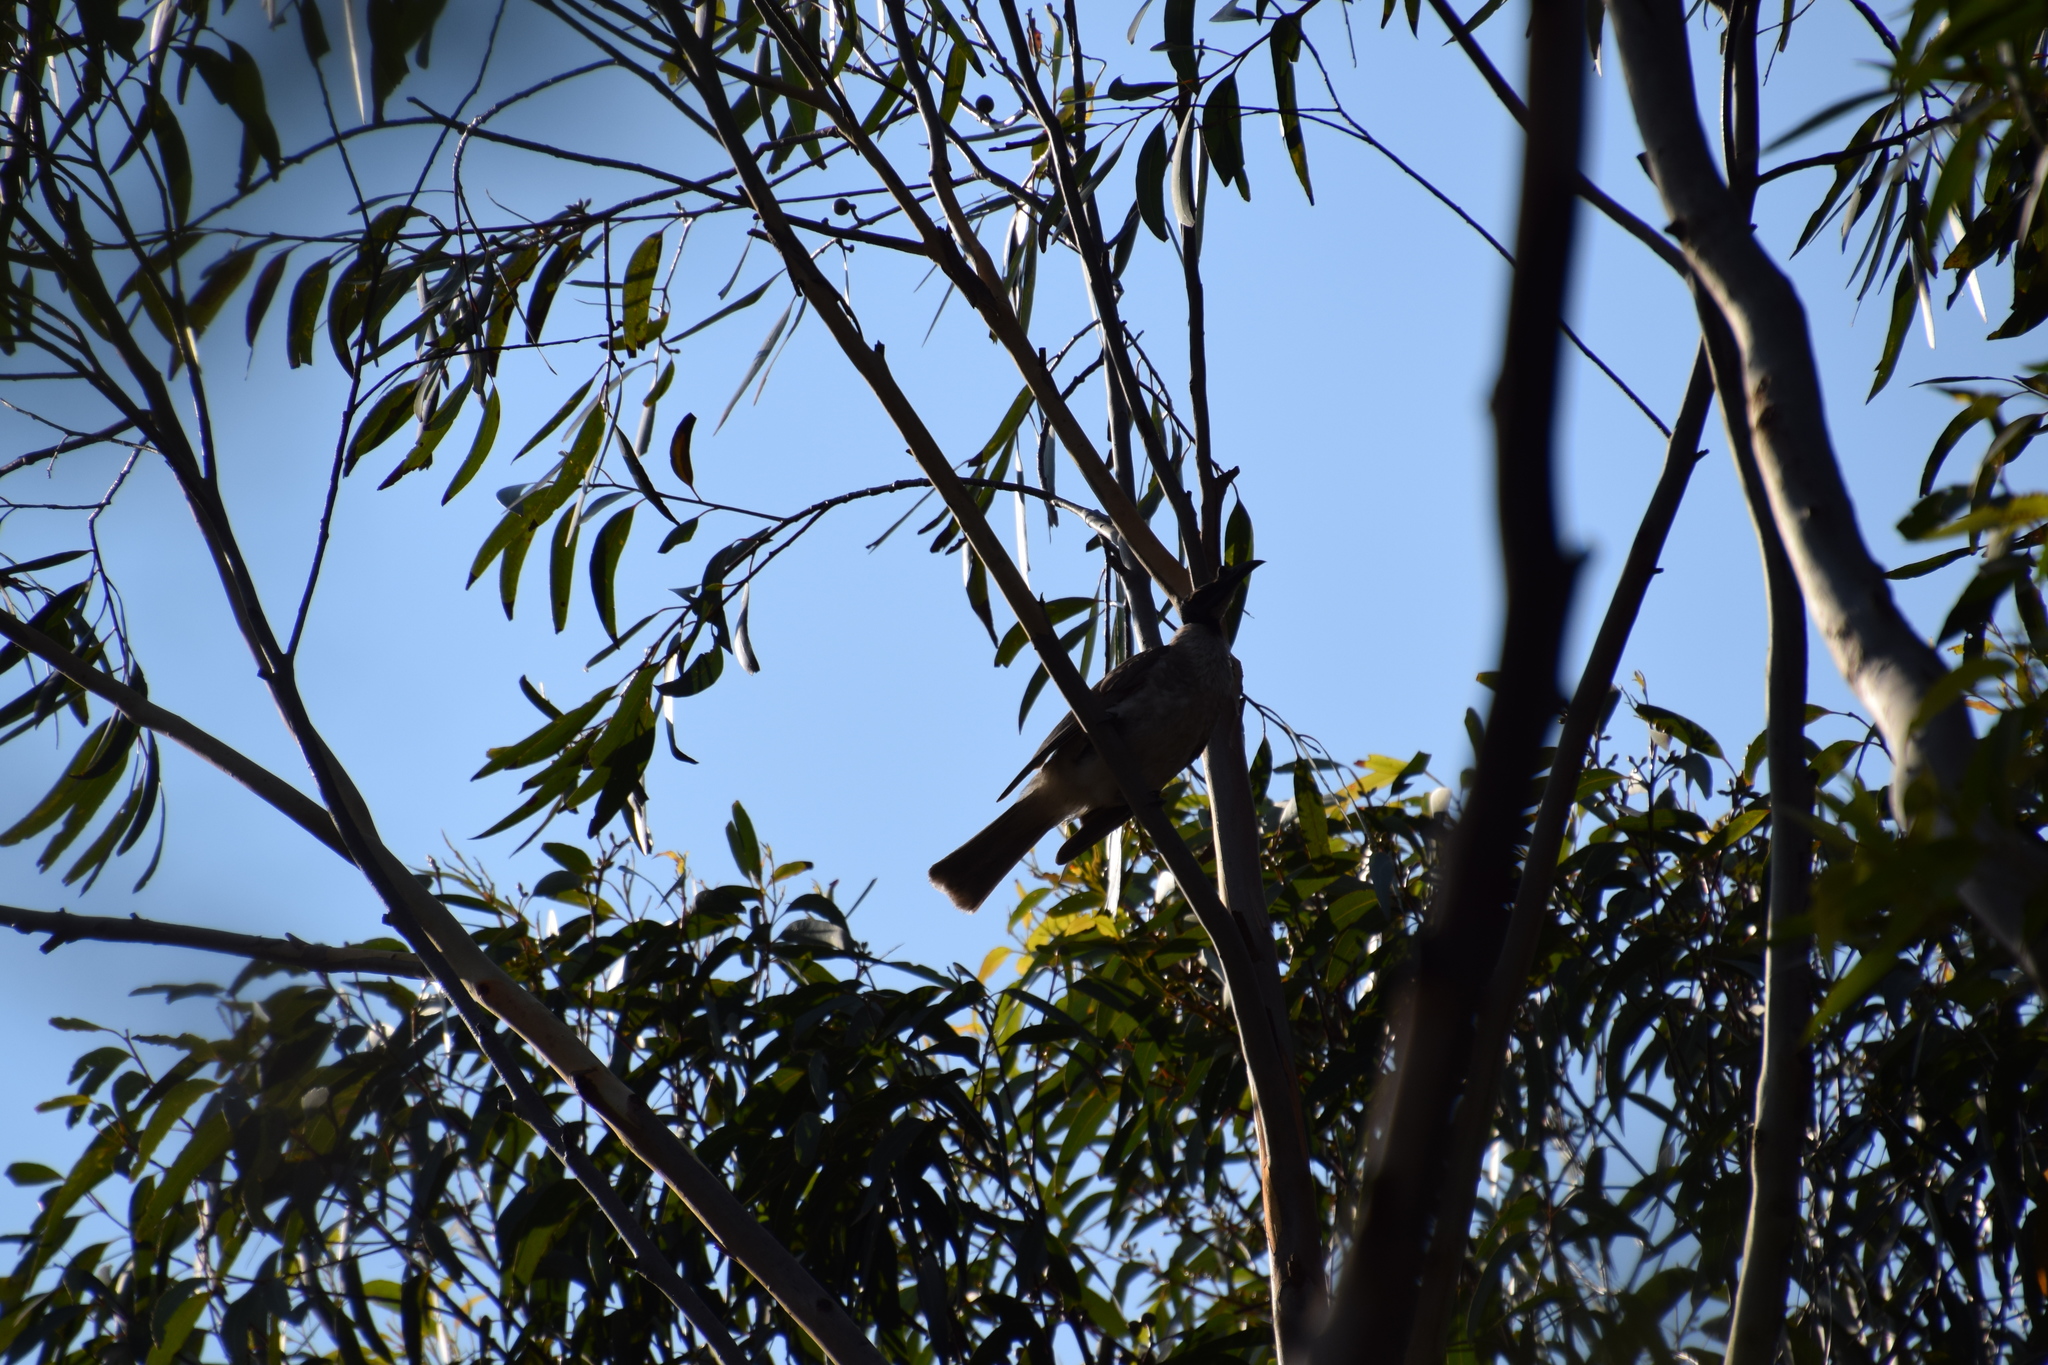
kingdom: Animalia
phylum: Chordata
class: Aves
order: Passeriformes
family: Meliphagidae
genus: Philemon
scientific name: Philemon corniculatus
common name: Noisy friarbird
